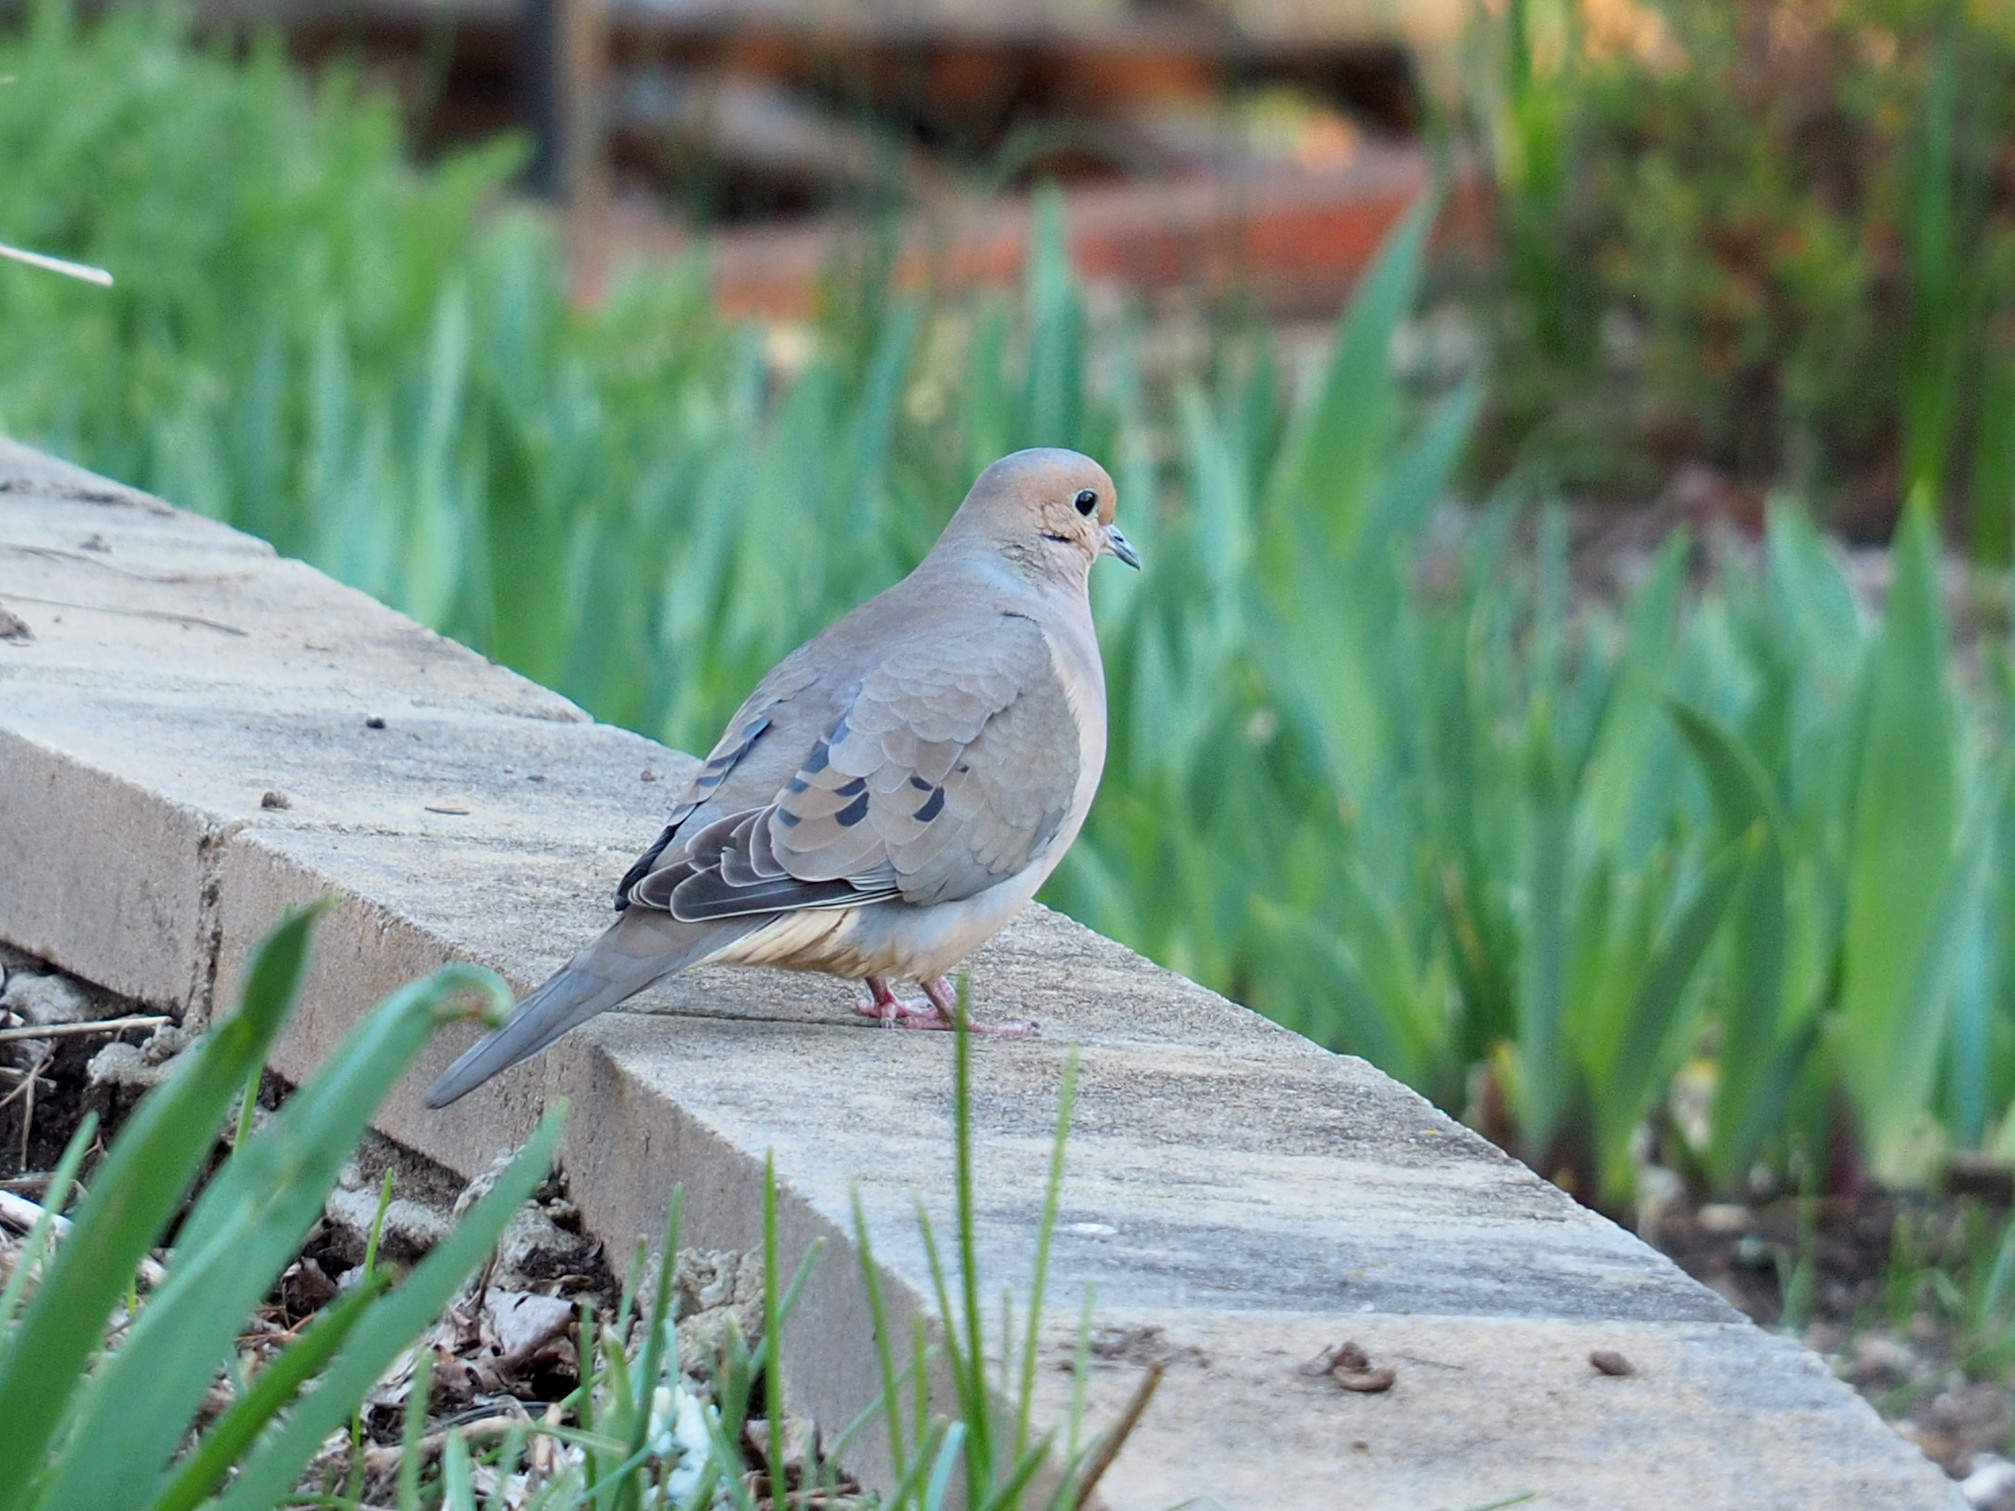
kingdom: Animalia
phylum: Chordata
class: Aves
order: Columbiformes
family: Columbidae
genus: Zenaida
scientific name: Zenaida macroura
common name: Mourning dove
